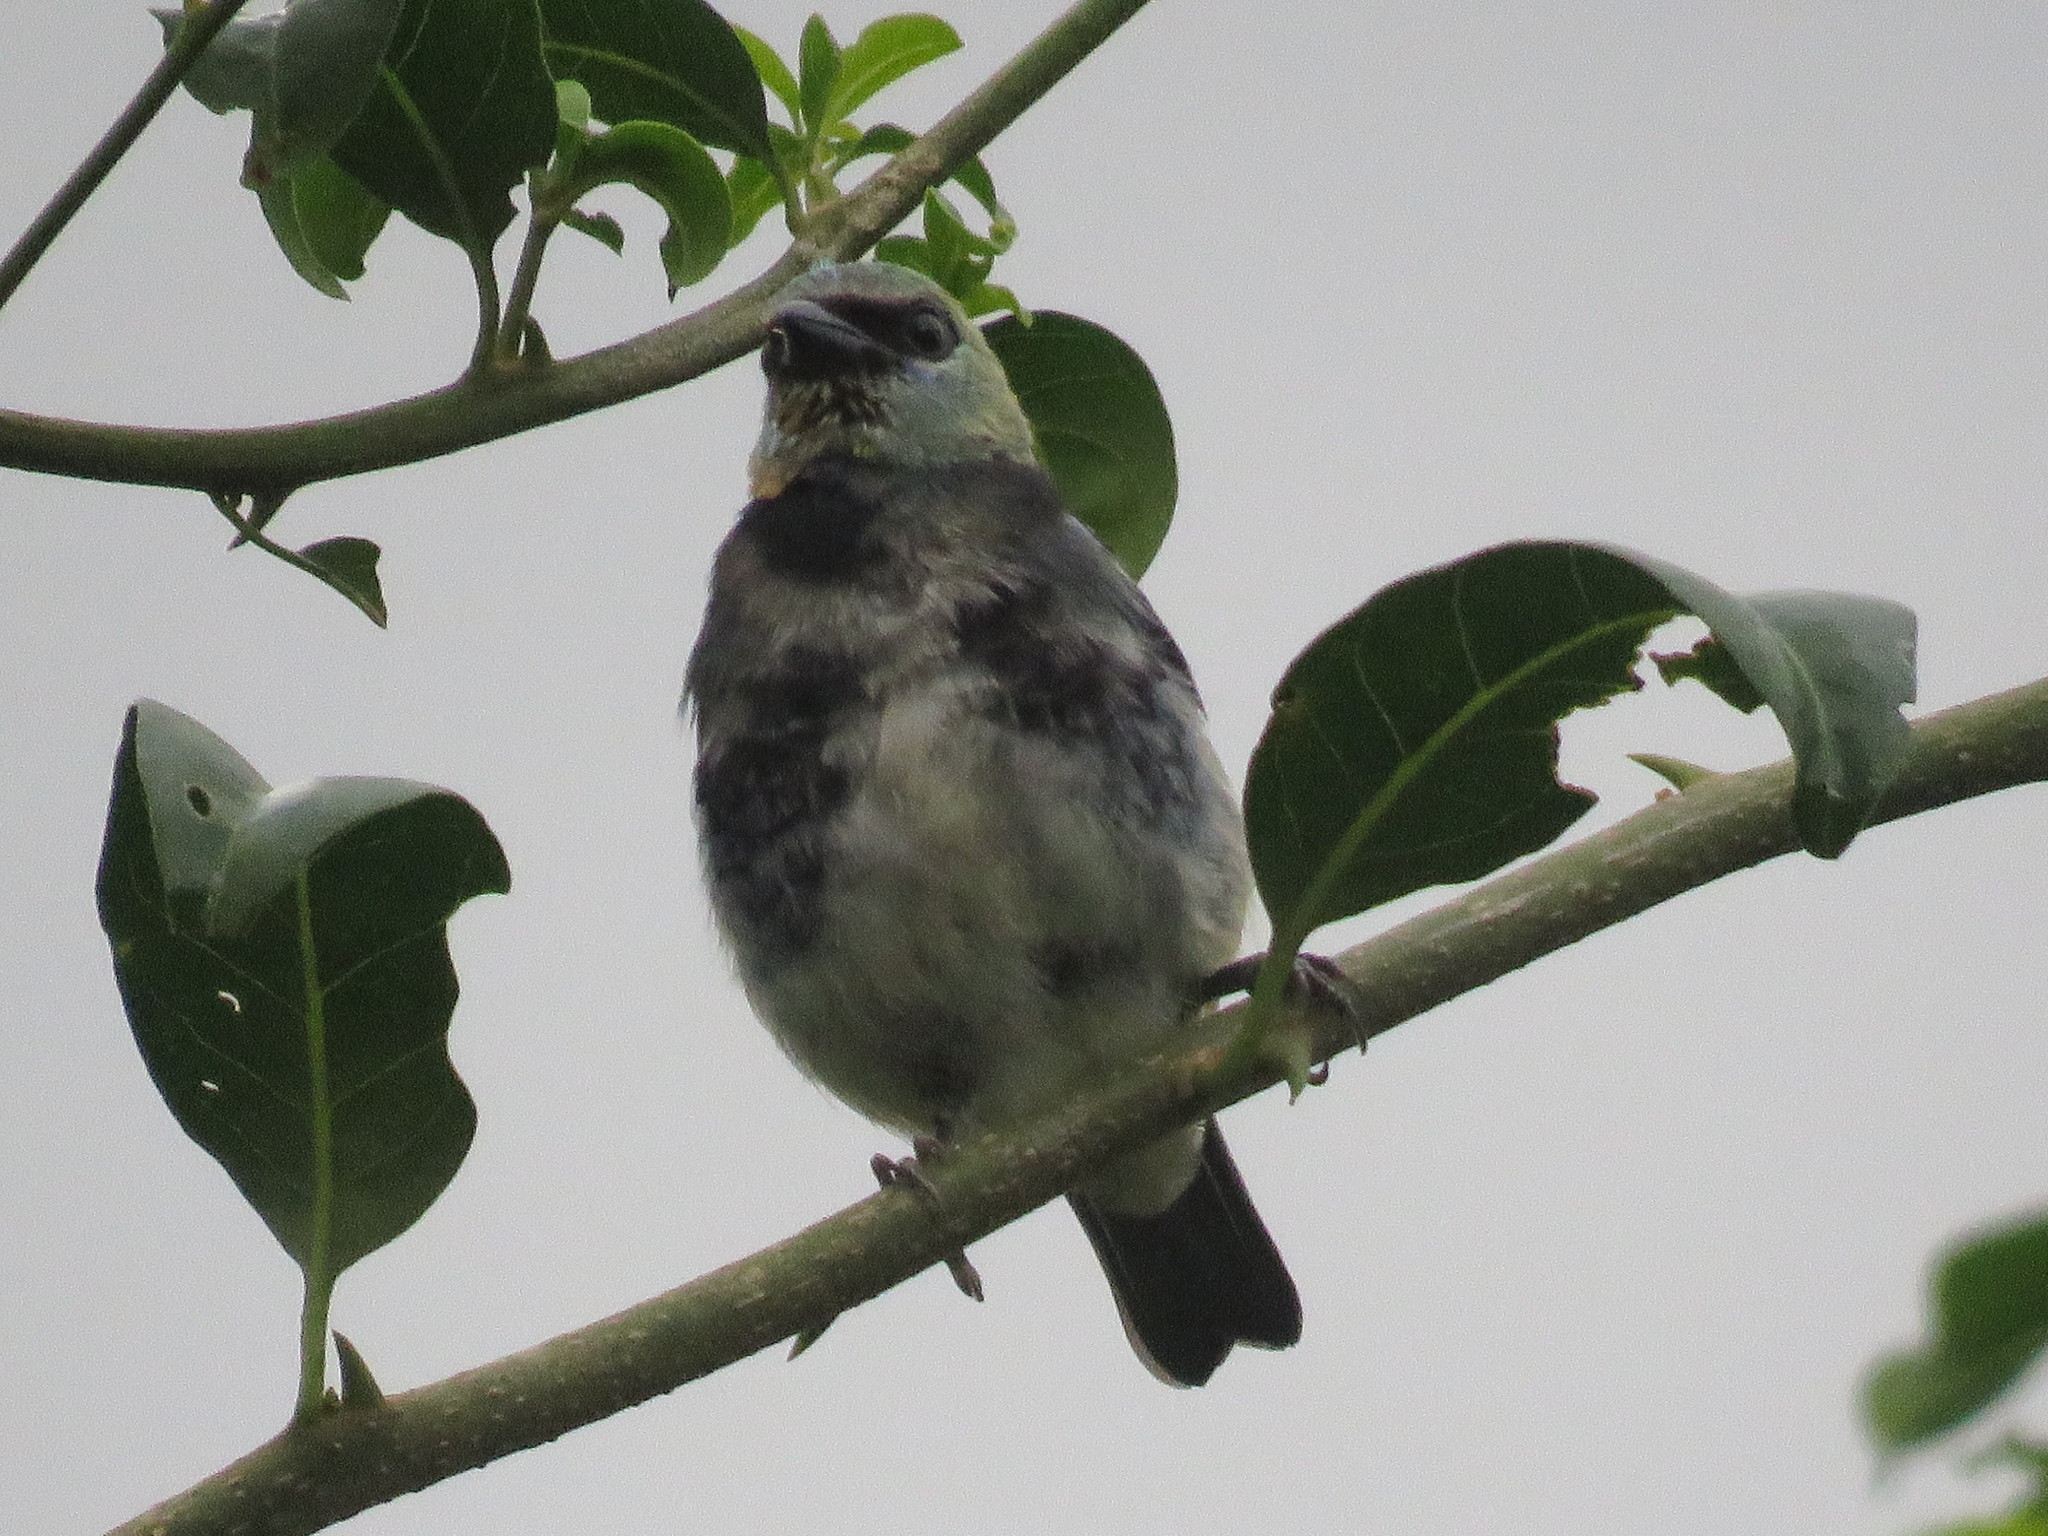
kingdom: Animalia
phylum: Chordata
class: Aves
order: Passeriformes
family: Thraupidae
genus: Stilpnia
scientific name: Stilpnia larvata
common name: Golden-hooded tanager
